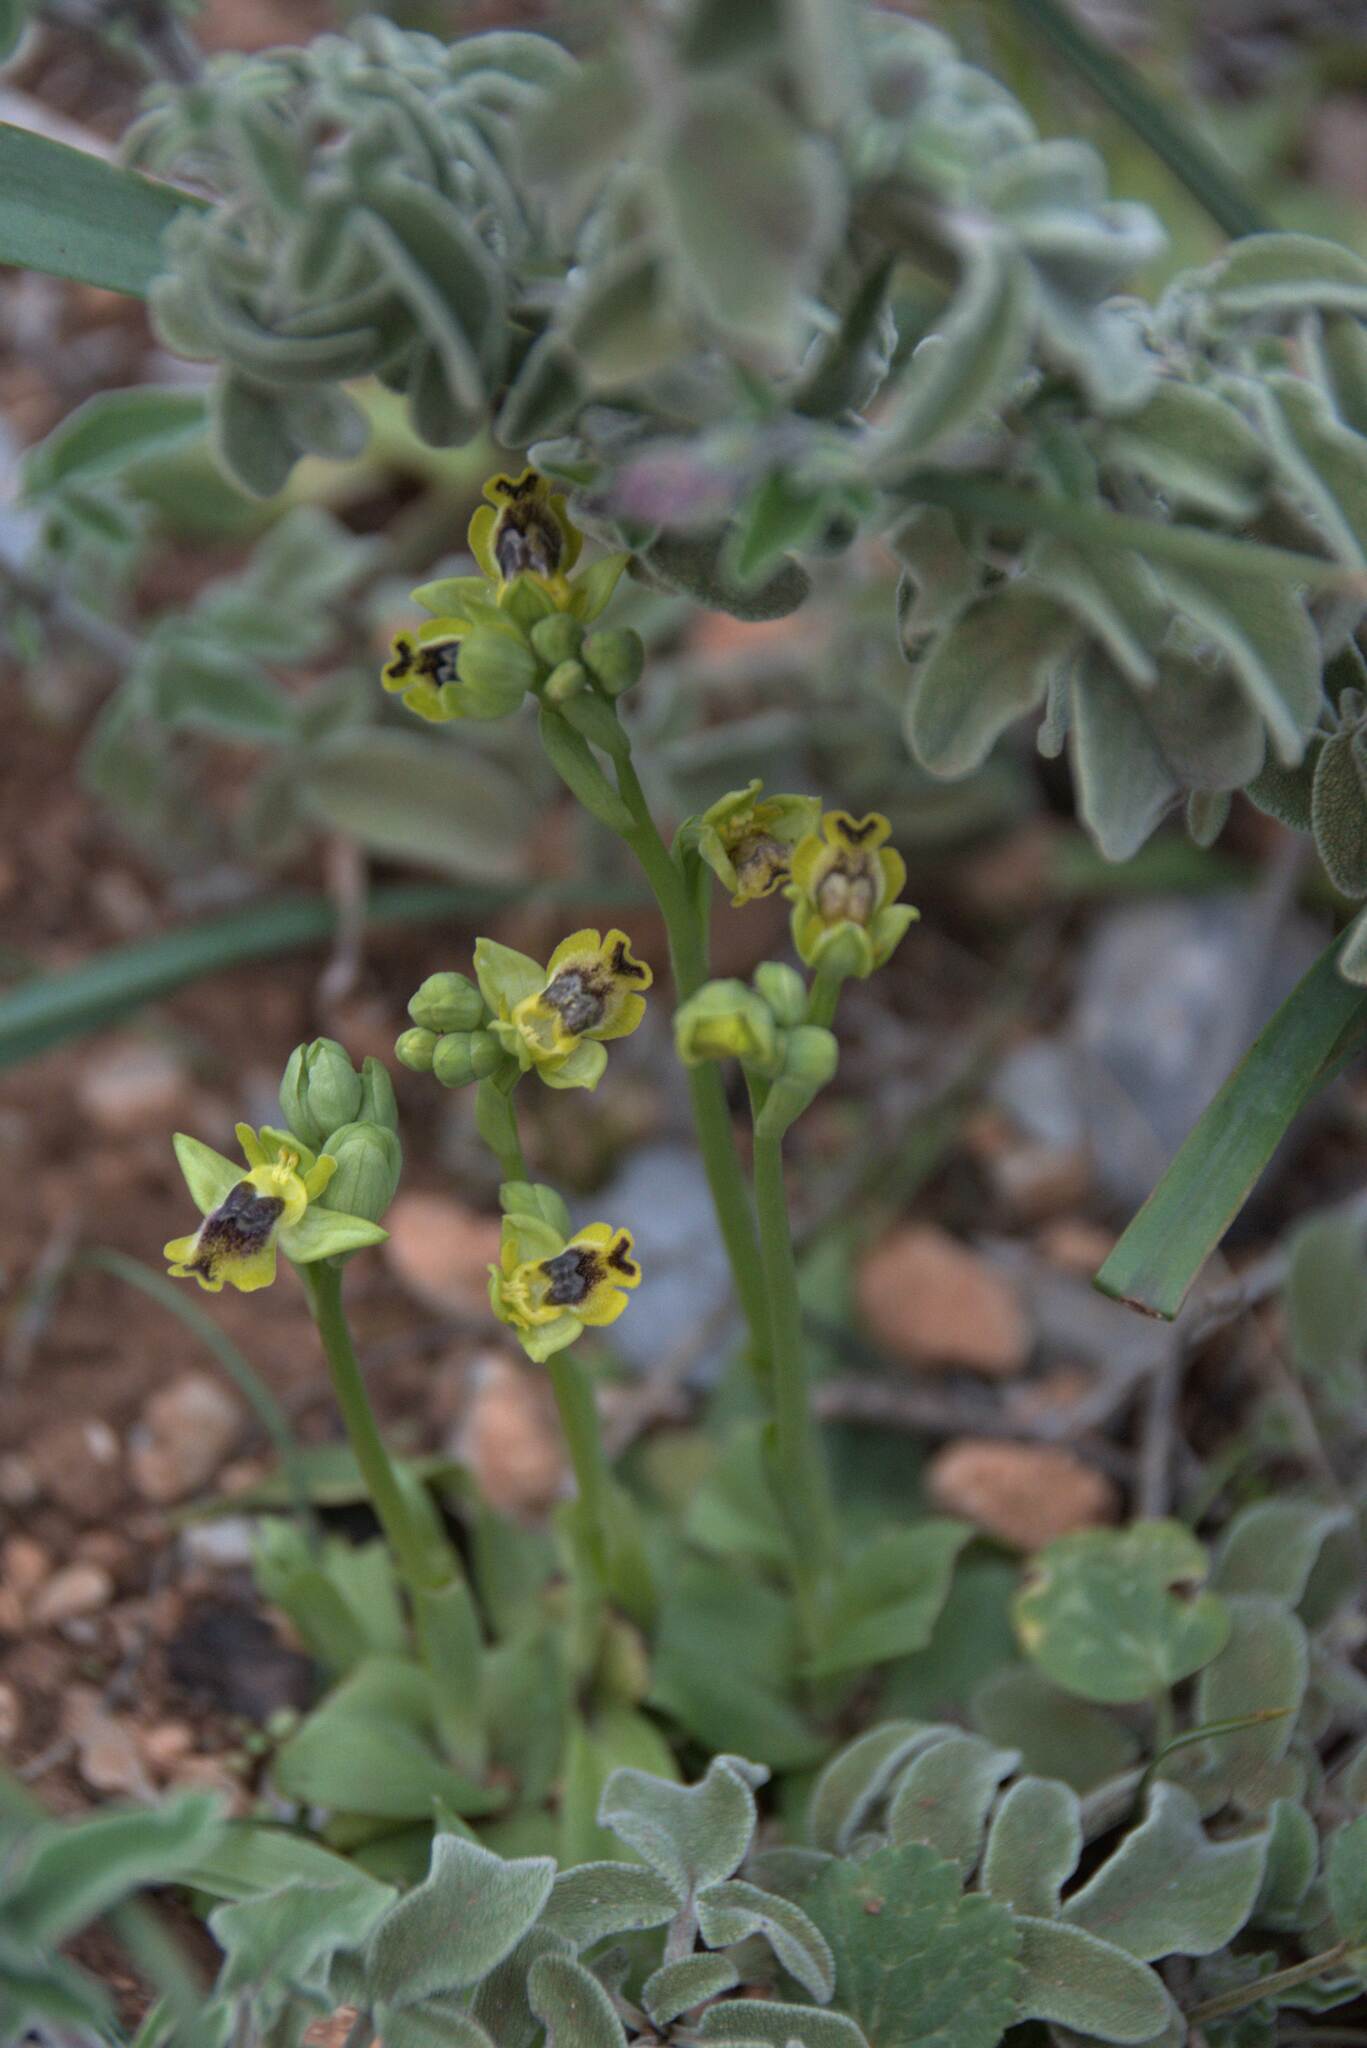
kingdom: Plantae
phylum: Tracheophyta
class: Liliopsida
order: Asparagales
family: Orchidaceae
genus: Ophrys
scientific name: Ophrys lutea
